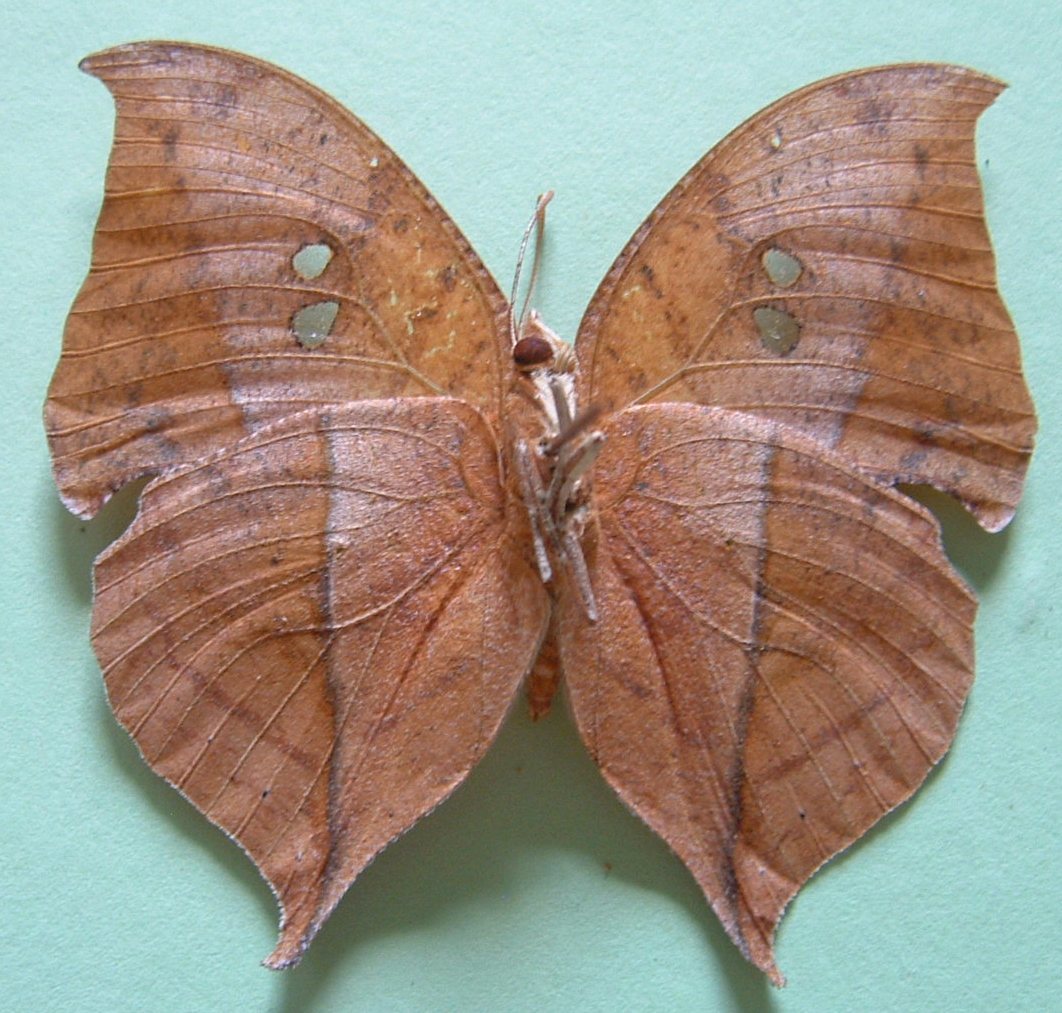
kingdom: Animalia
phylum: Arthropoda
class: Insecta
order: Lepidoptera
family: Nymphalidae
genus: Zaretis
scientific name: Zaretis itys
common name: Skeletonized leafwing
